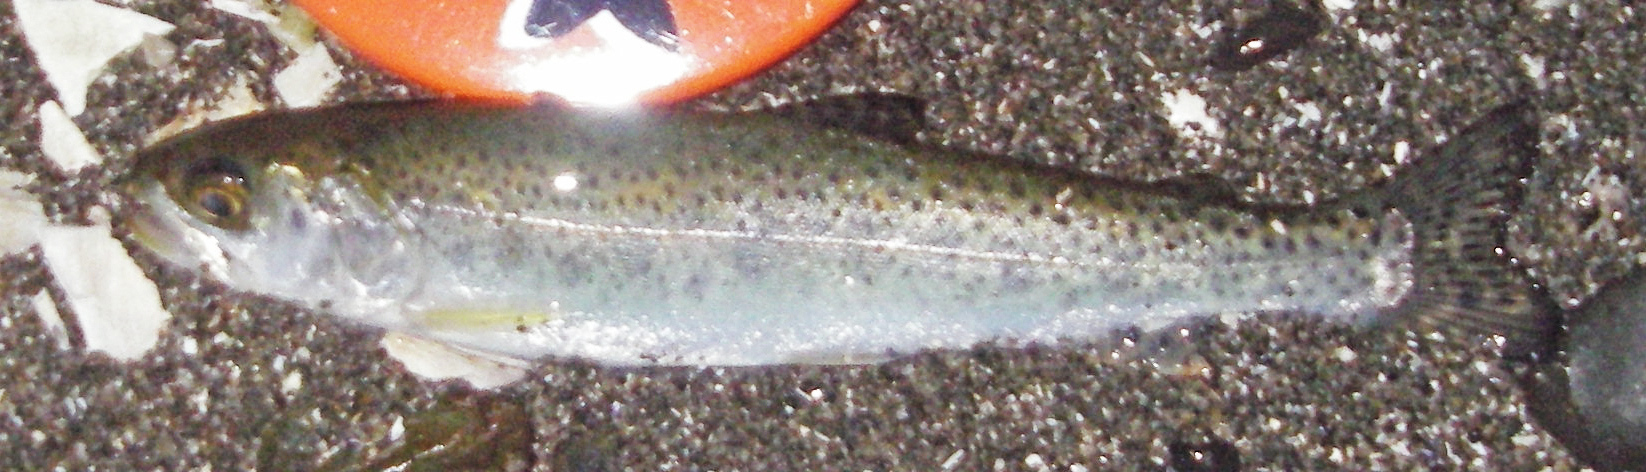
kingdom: Animalia
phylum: Chordata
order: Salmoniformes
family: Salmonidae
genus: Oncorhynchus
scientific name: Oncorhynchus clarkii
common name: Cutthroat trout
